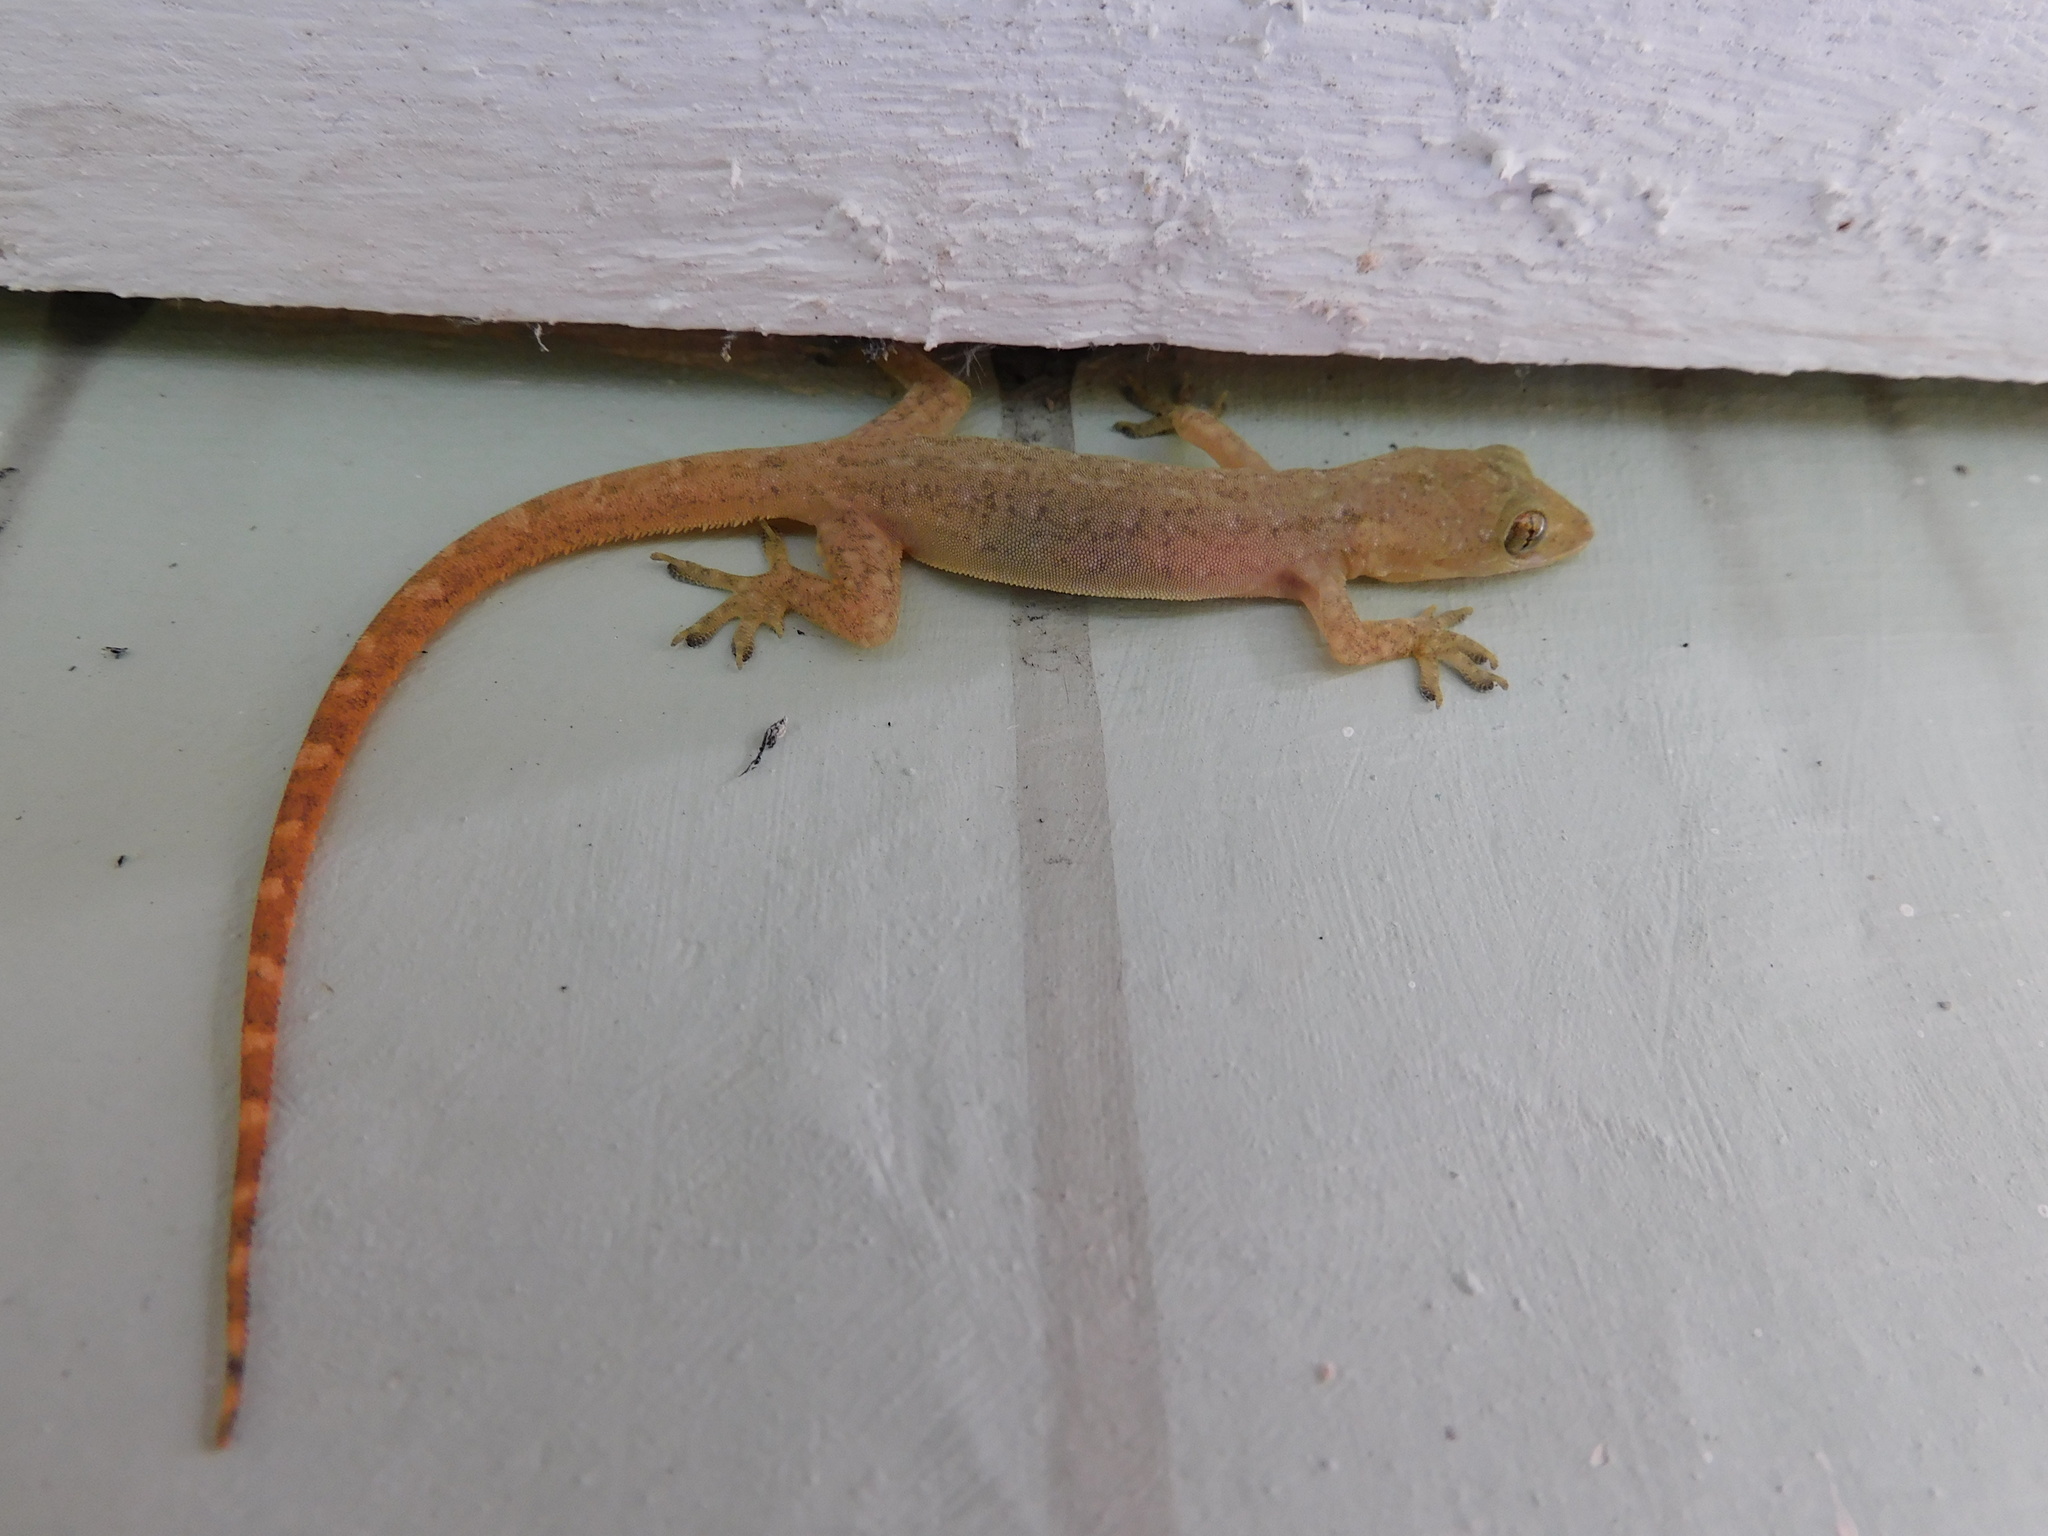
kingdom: Animalia
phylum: Chordata
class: Squamata
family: Gekkonidae
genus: Hemidactylus
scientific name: Hemidactylus garnotii
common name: Indo-pacific gecko
